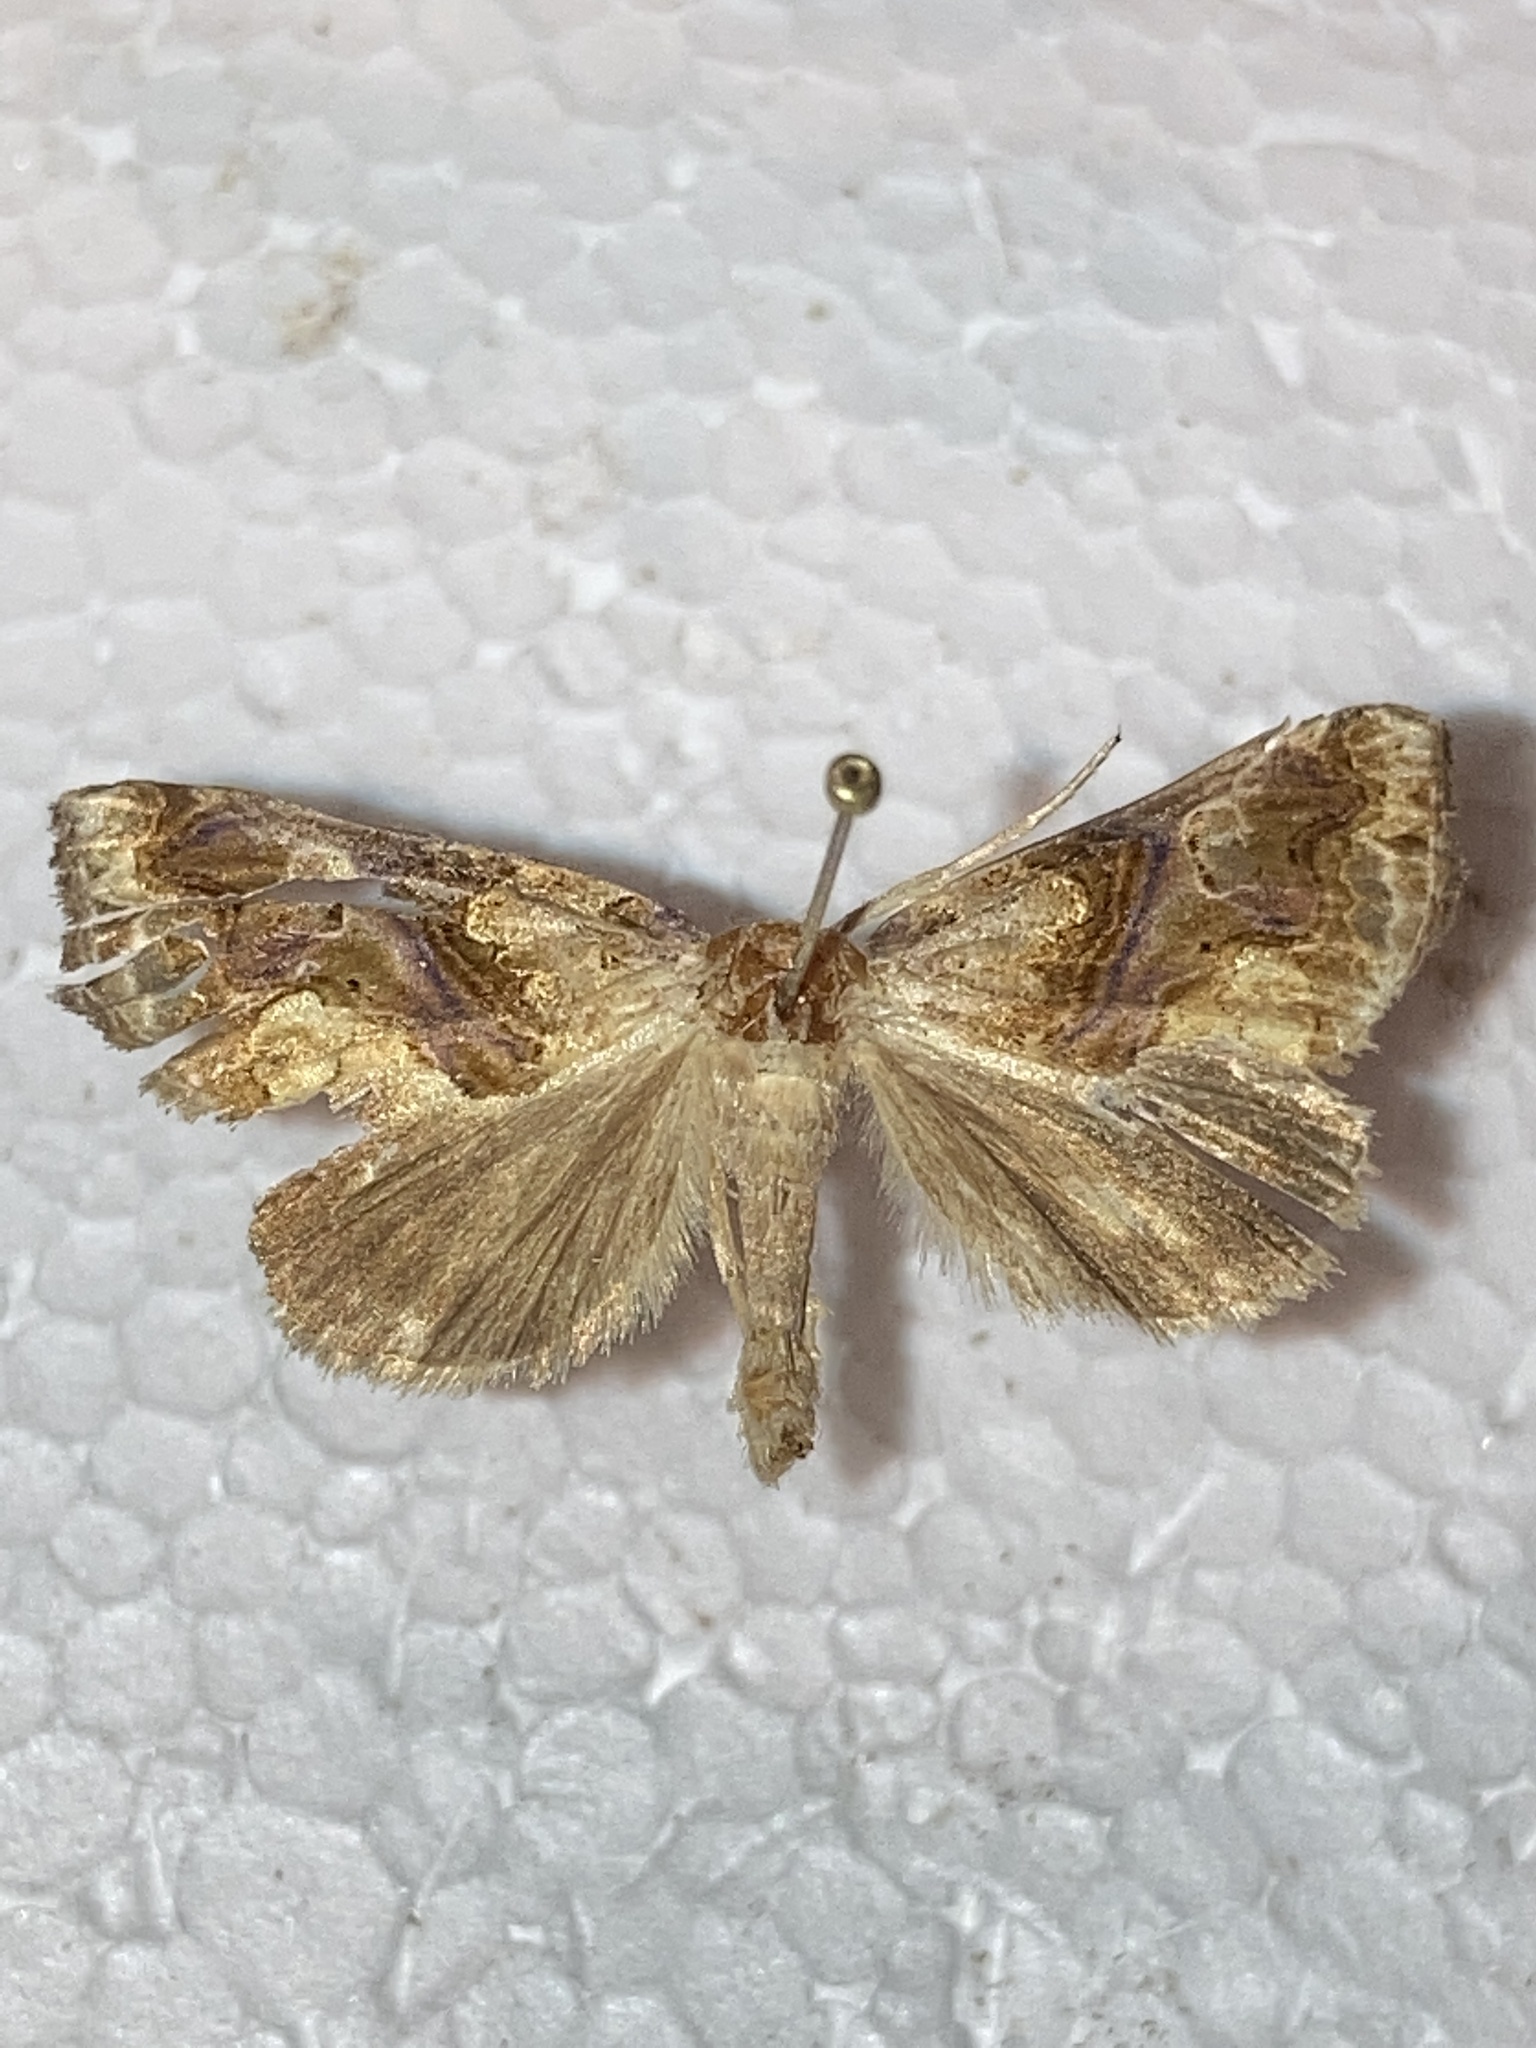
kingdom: Animalia
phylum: Arthropoda
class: Insecta
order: Lepidoptera
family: Erebidae
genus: Plusiodonta
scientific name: Plusiodonta compressipalpis
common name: Moonseed moth
